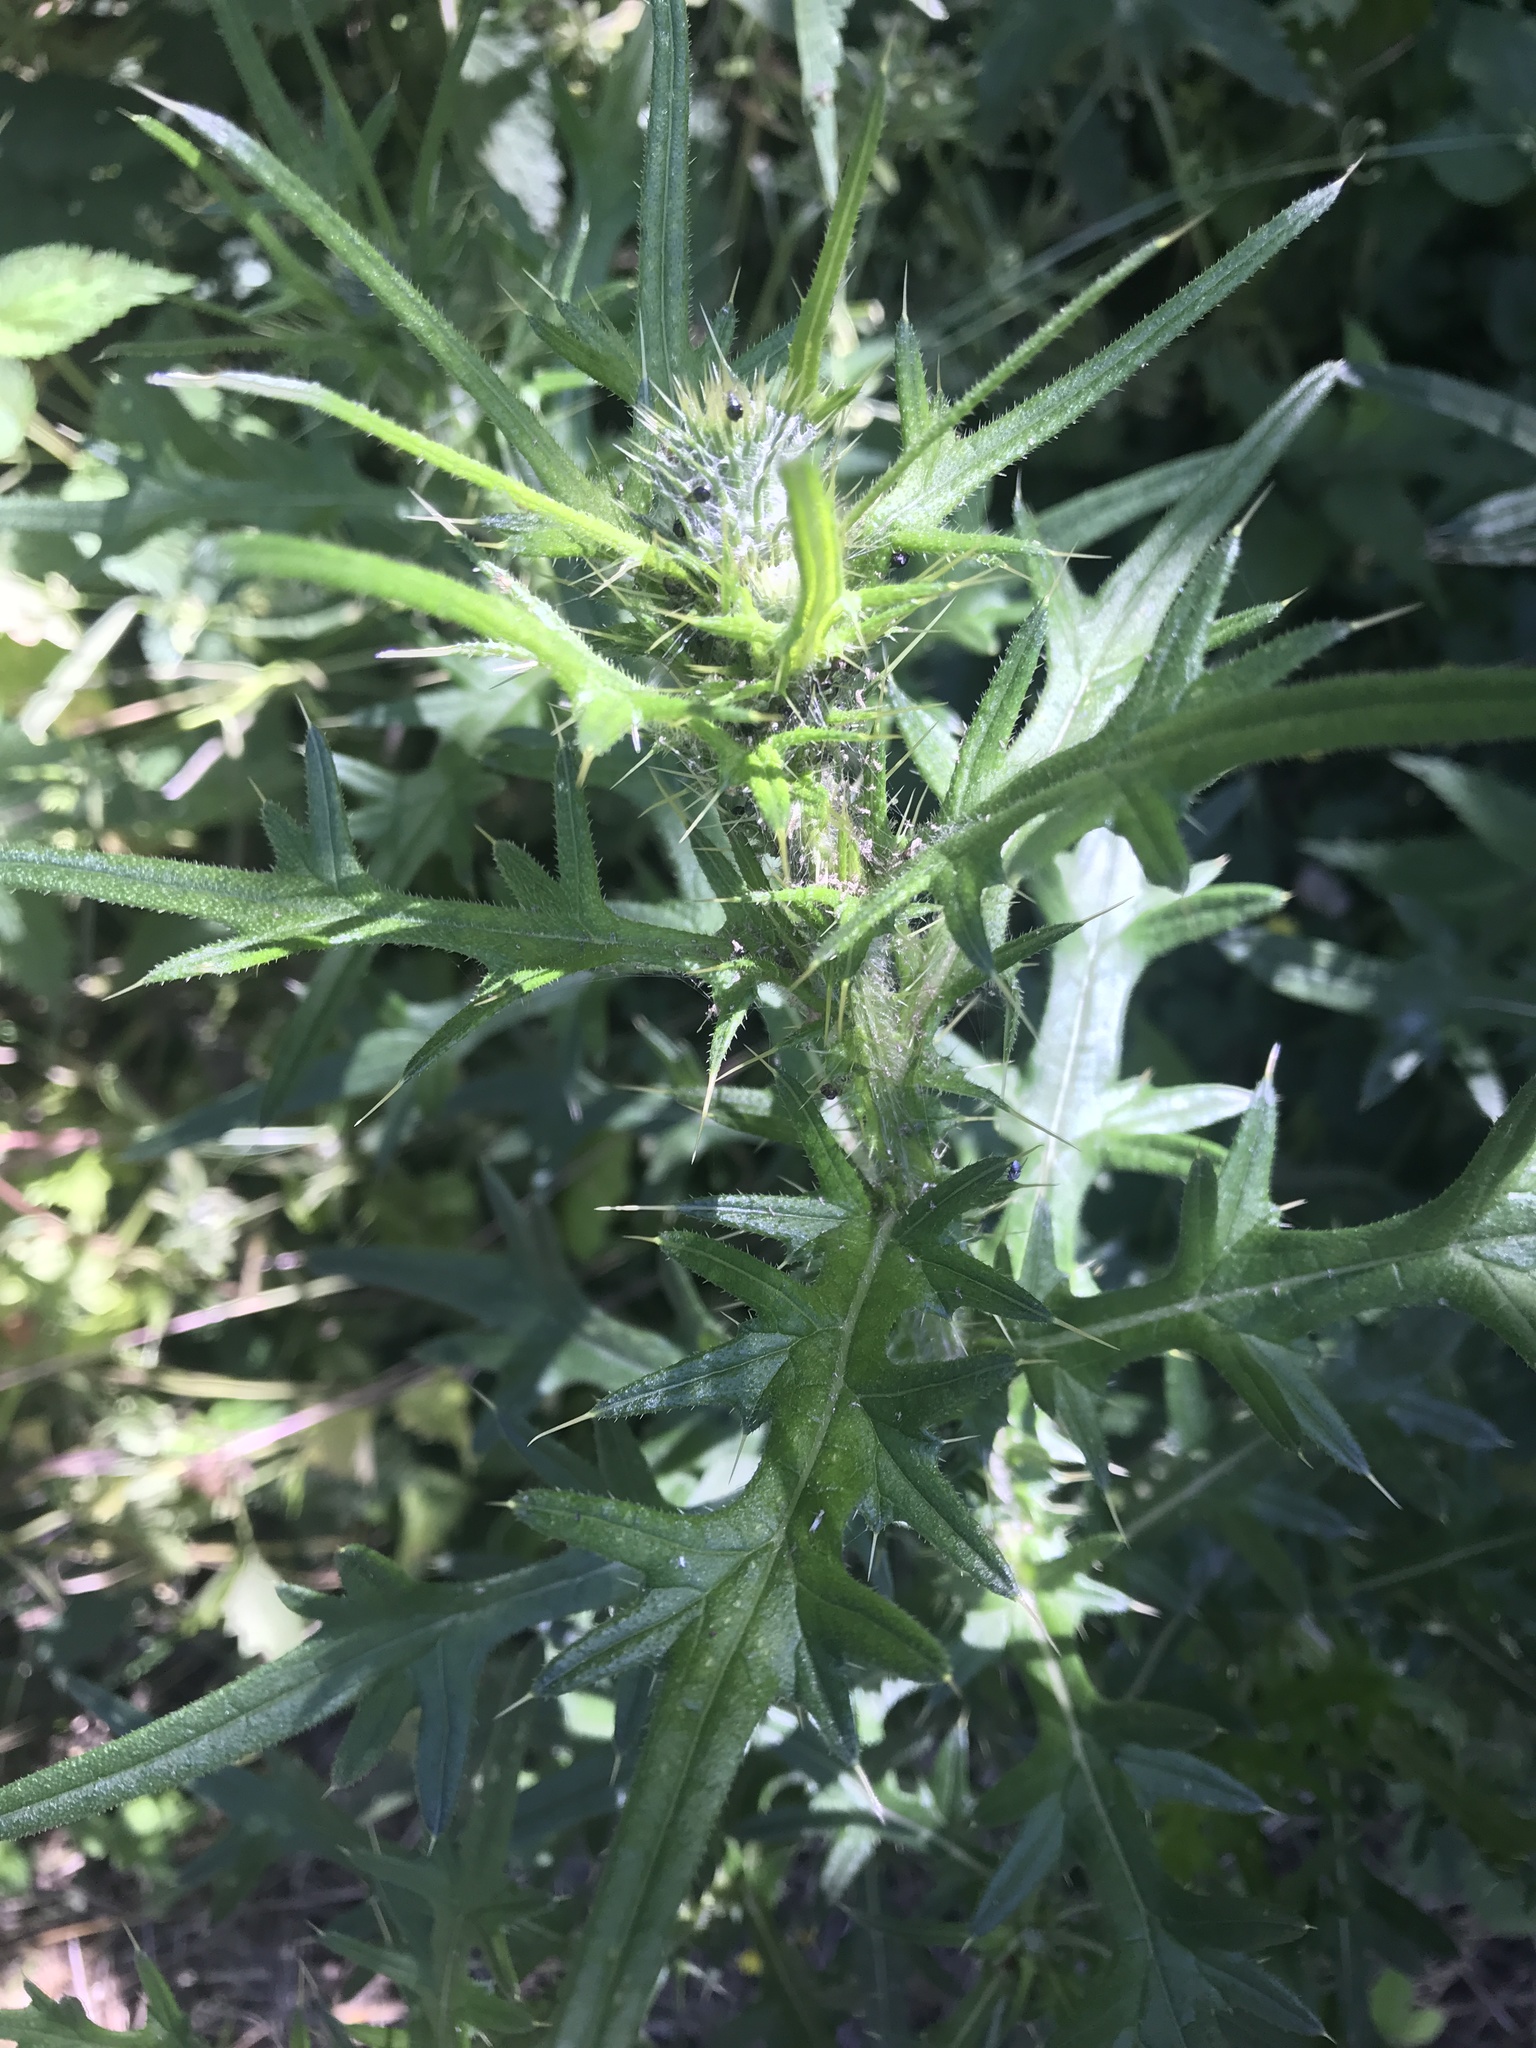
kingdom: Plantae
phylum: Tracheophyta
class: Magnoliopsida
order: Asterales
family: Asteraceae
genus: Cirsium
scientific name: Cirsium vulgare
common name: Bull thistle
